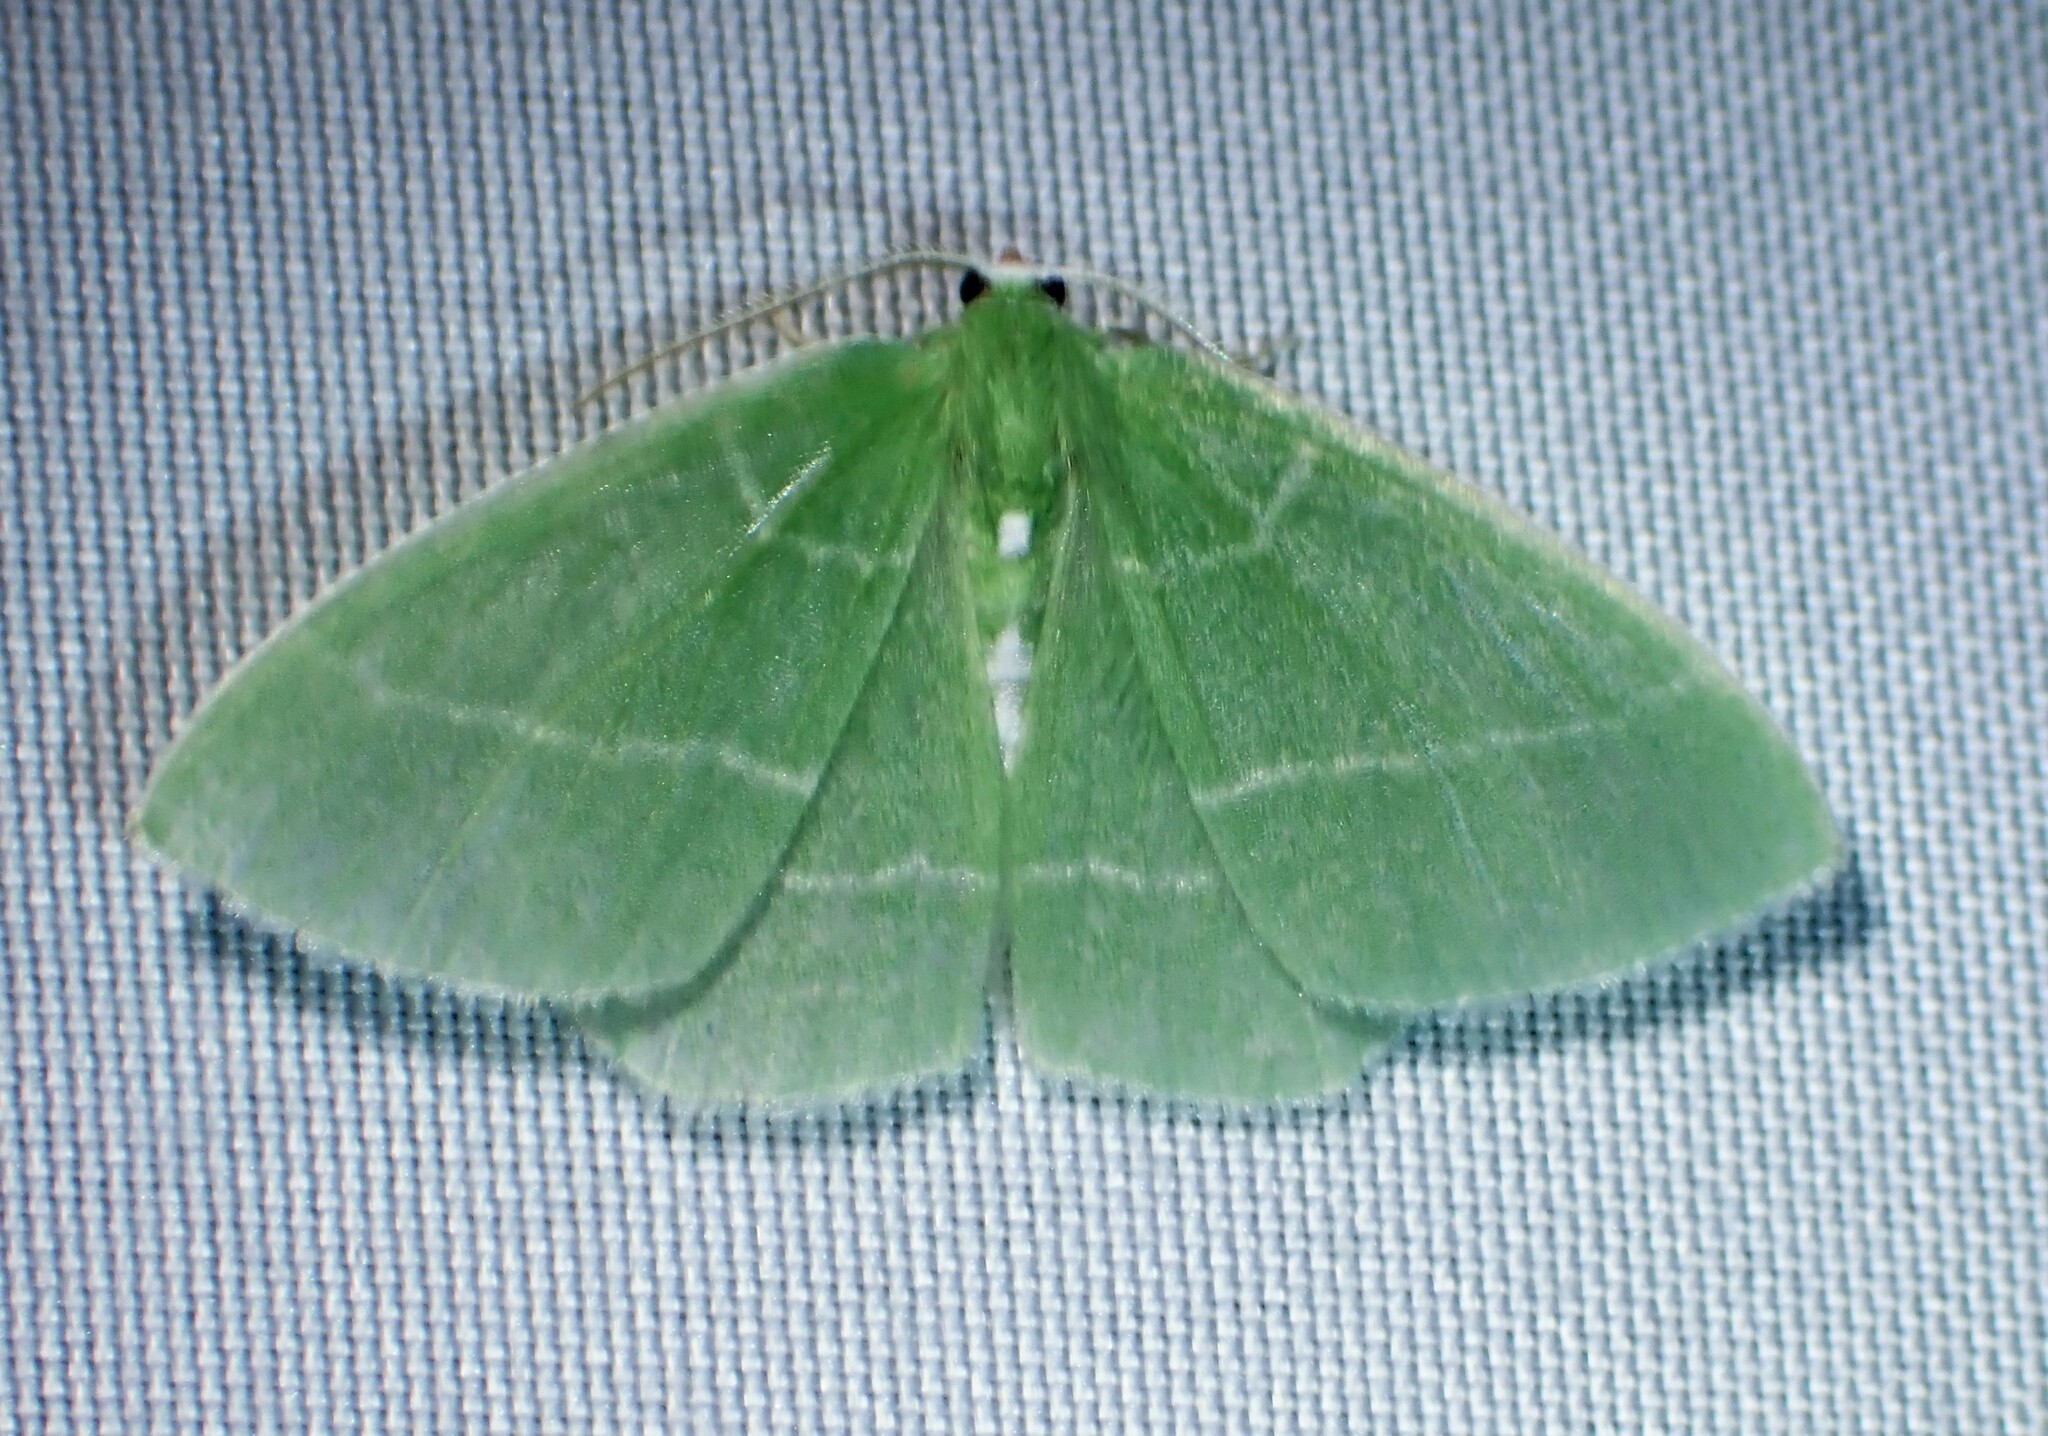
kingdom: Animalia
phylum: Arthropoda
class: Insecta
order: Lepidoptera
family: Geometridae
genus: Nemoria
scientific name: Nemoria mimosaria
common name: White-fringed emerald
